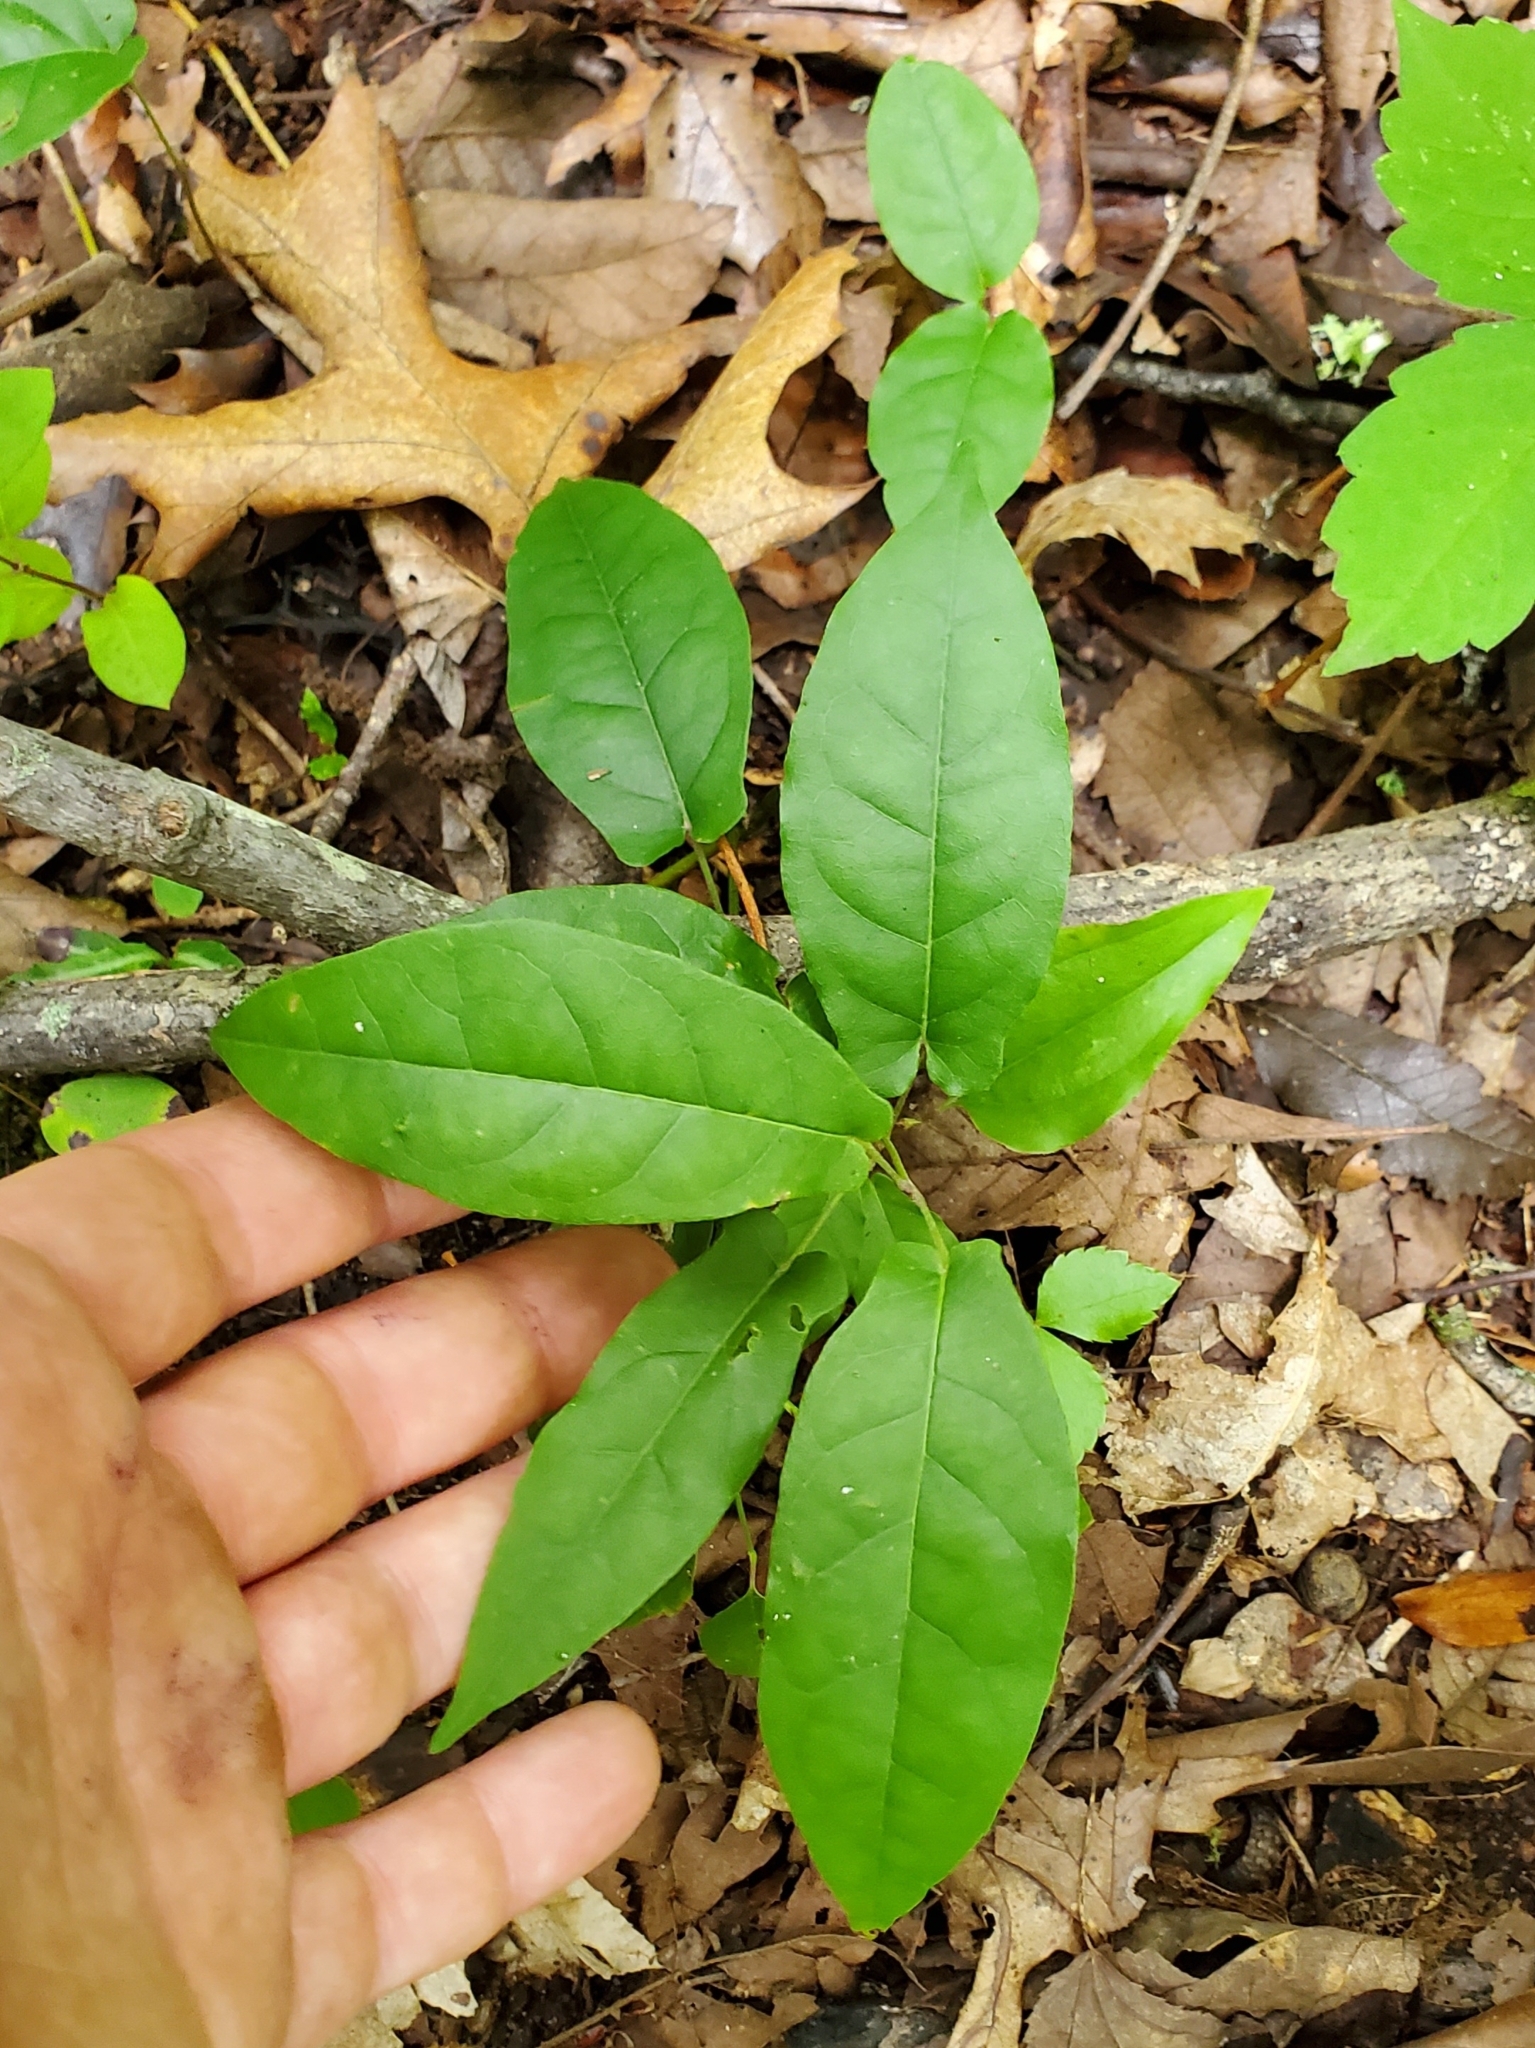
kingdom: Plantae
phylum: Tracheophyta
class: Magnoliopsida
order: Lamiales
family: Bignoniaceae
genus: Bignonia
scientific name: Bignonia capreolata
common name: Crossvine
